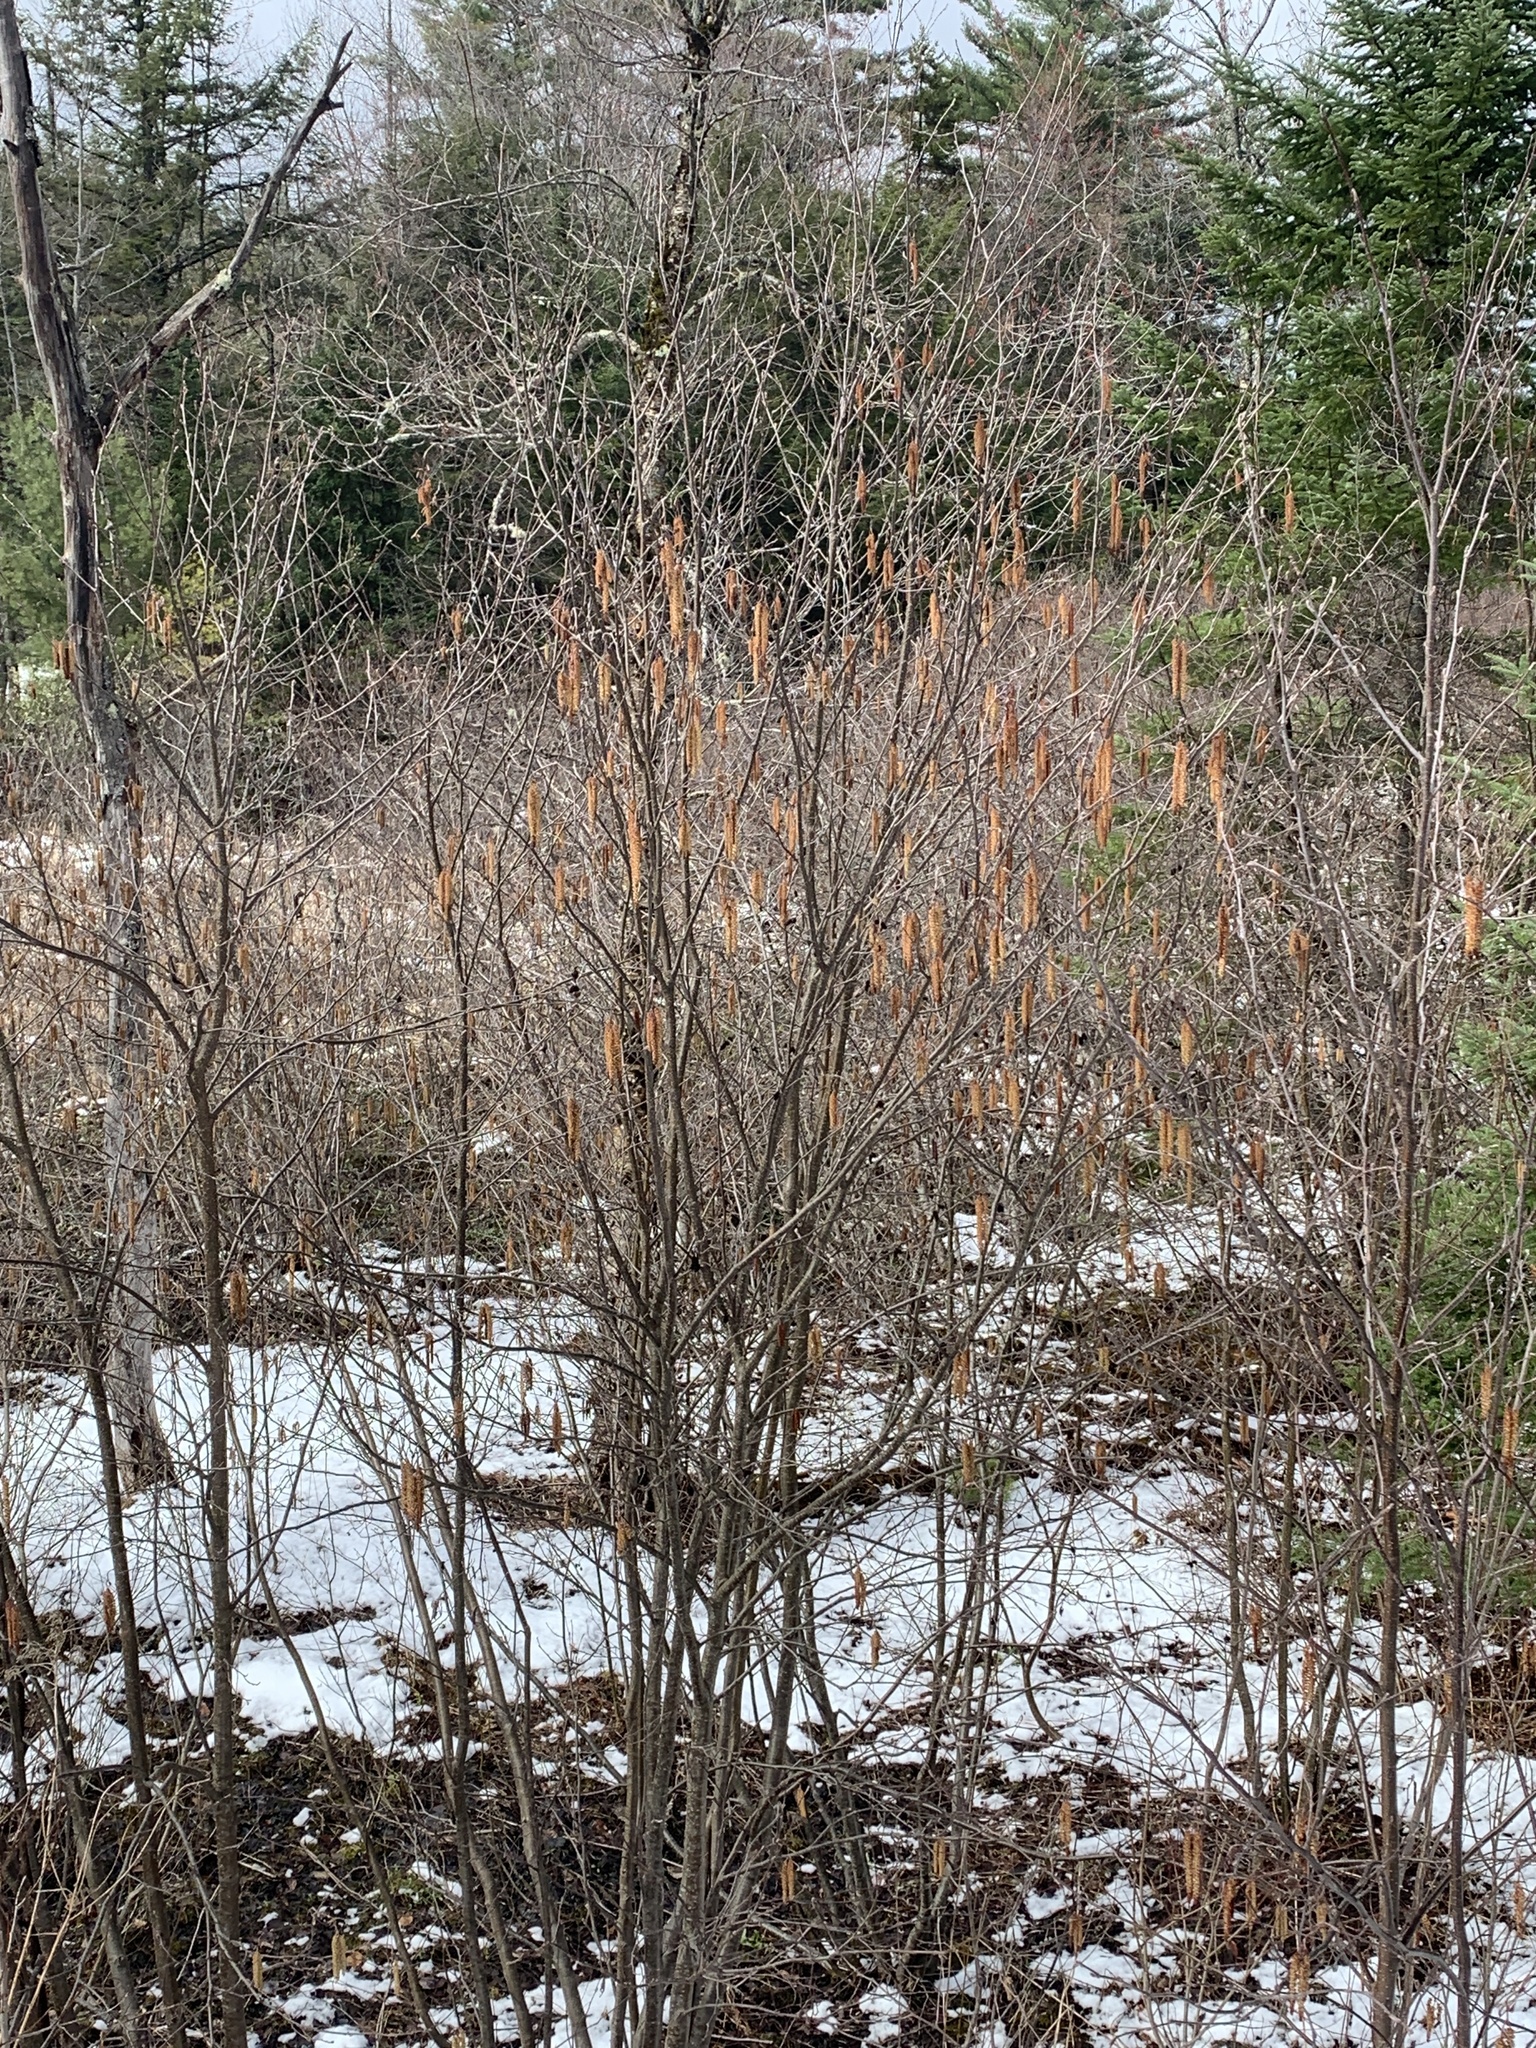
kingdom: Plantae
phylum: Tracheophyta
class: Magnoliopsida
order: Fagales
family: Betulaceae
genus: Alnus
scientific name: Alnus incana
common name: Grey alder
